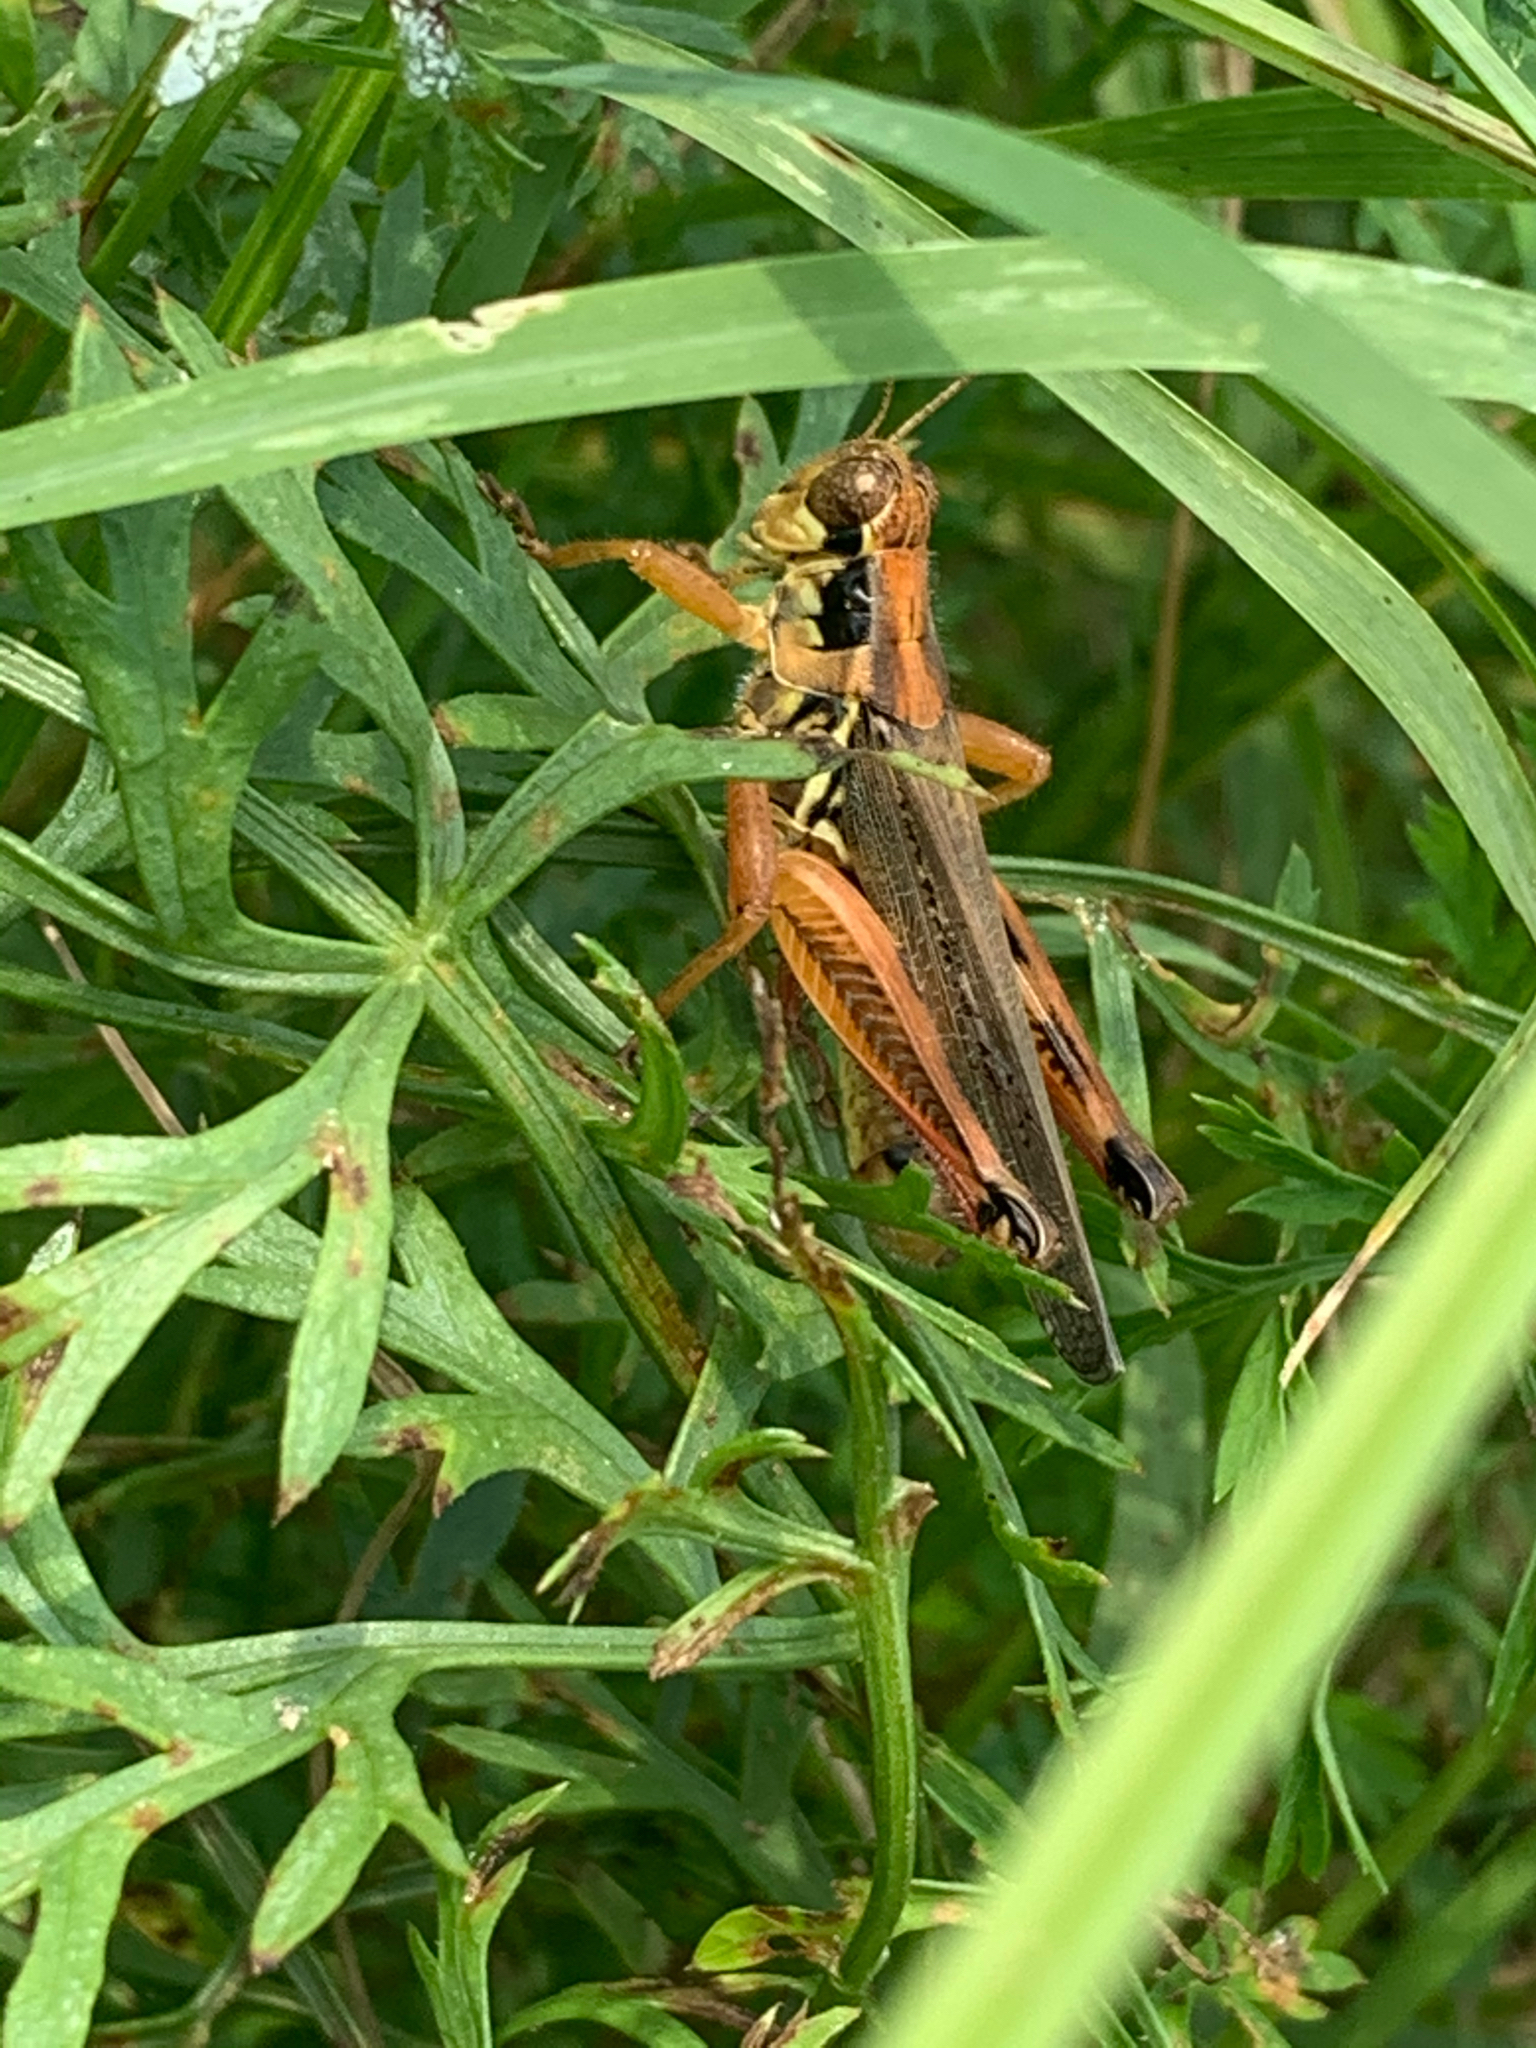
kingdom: Animalia
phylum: Arthropoda
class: Insecta
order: Orthoptera
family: Acrididae
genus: Melanoplus
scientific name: Melanoplus femurrubrum
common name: Red-legged grasshopper
